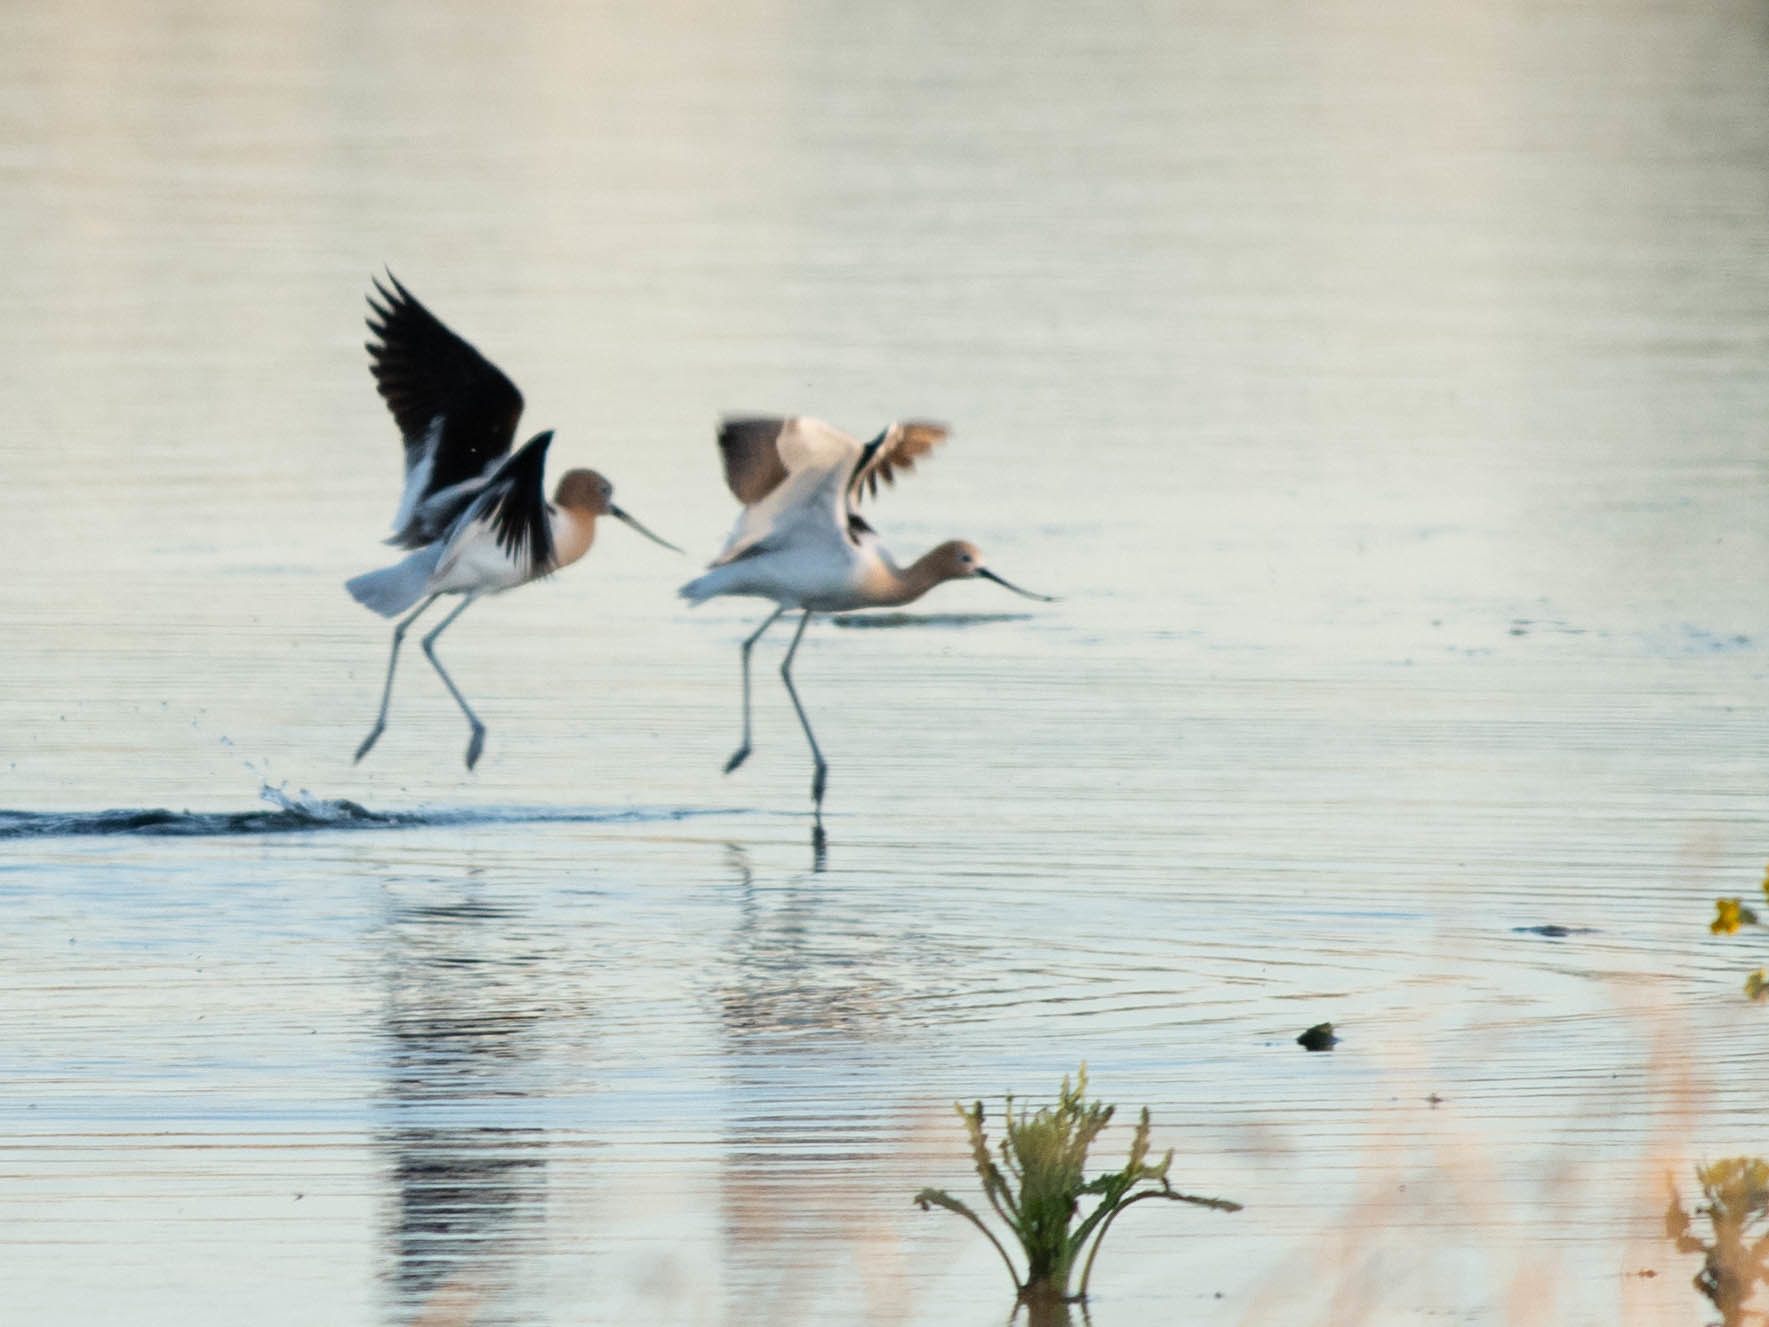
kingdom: Animalia
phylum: Chordata
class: Aves
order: Charadriiformes
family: Recurvirostridae
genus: Recurvirostra
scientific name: Recurvirostra americana
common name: American avocet
